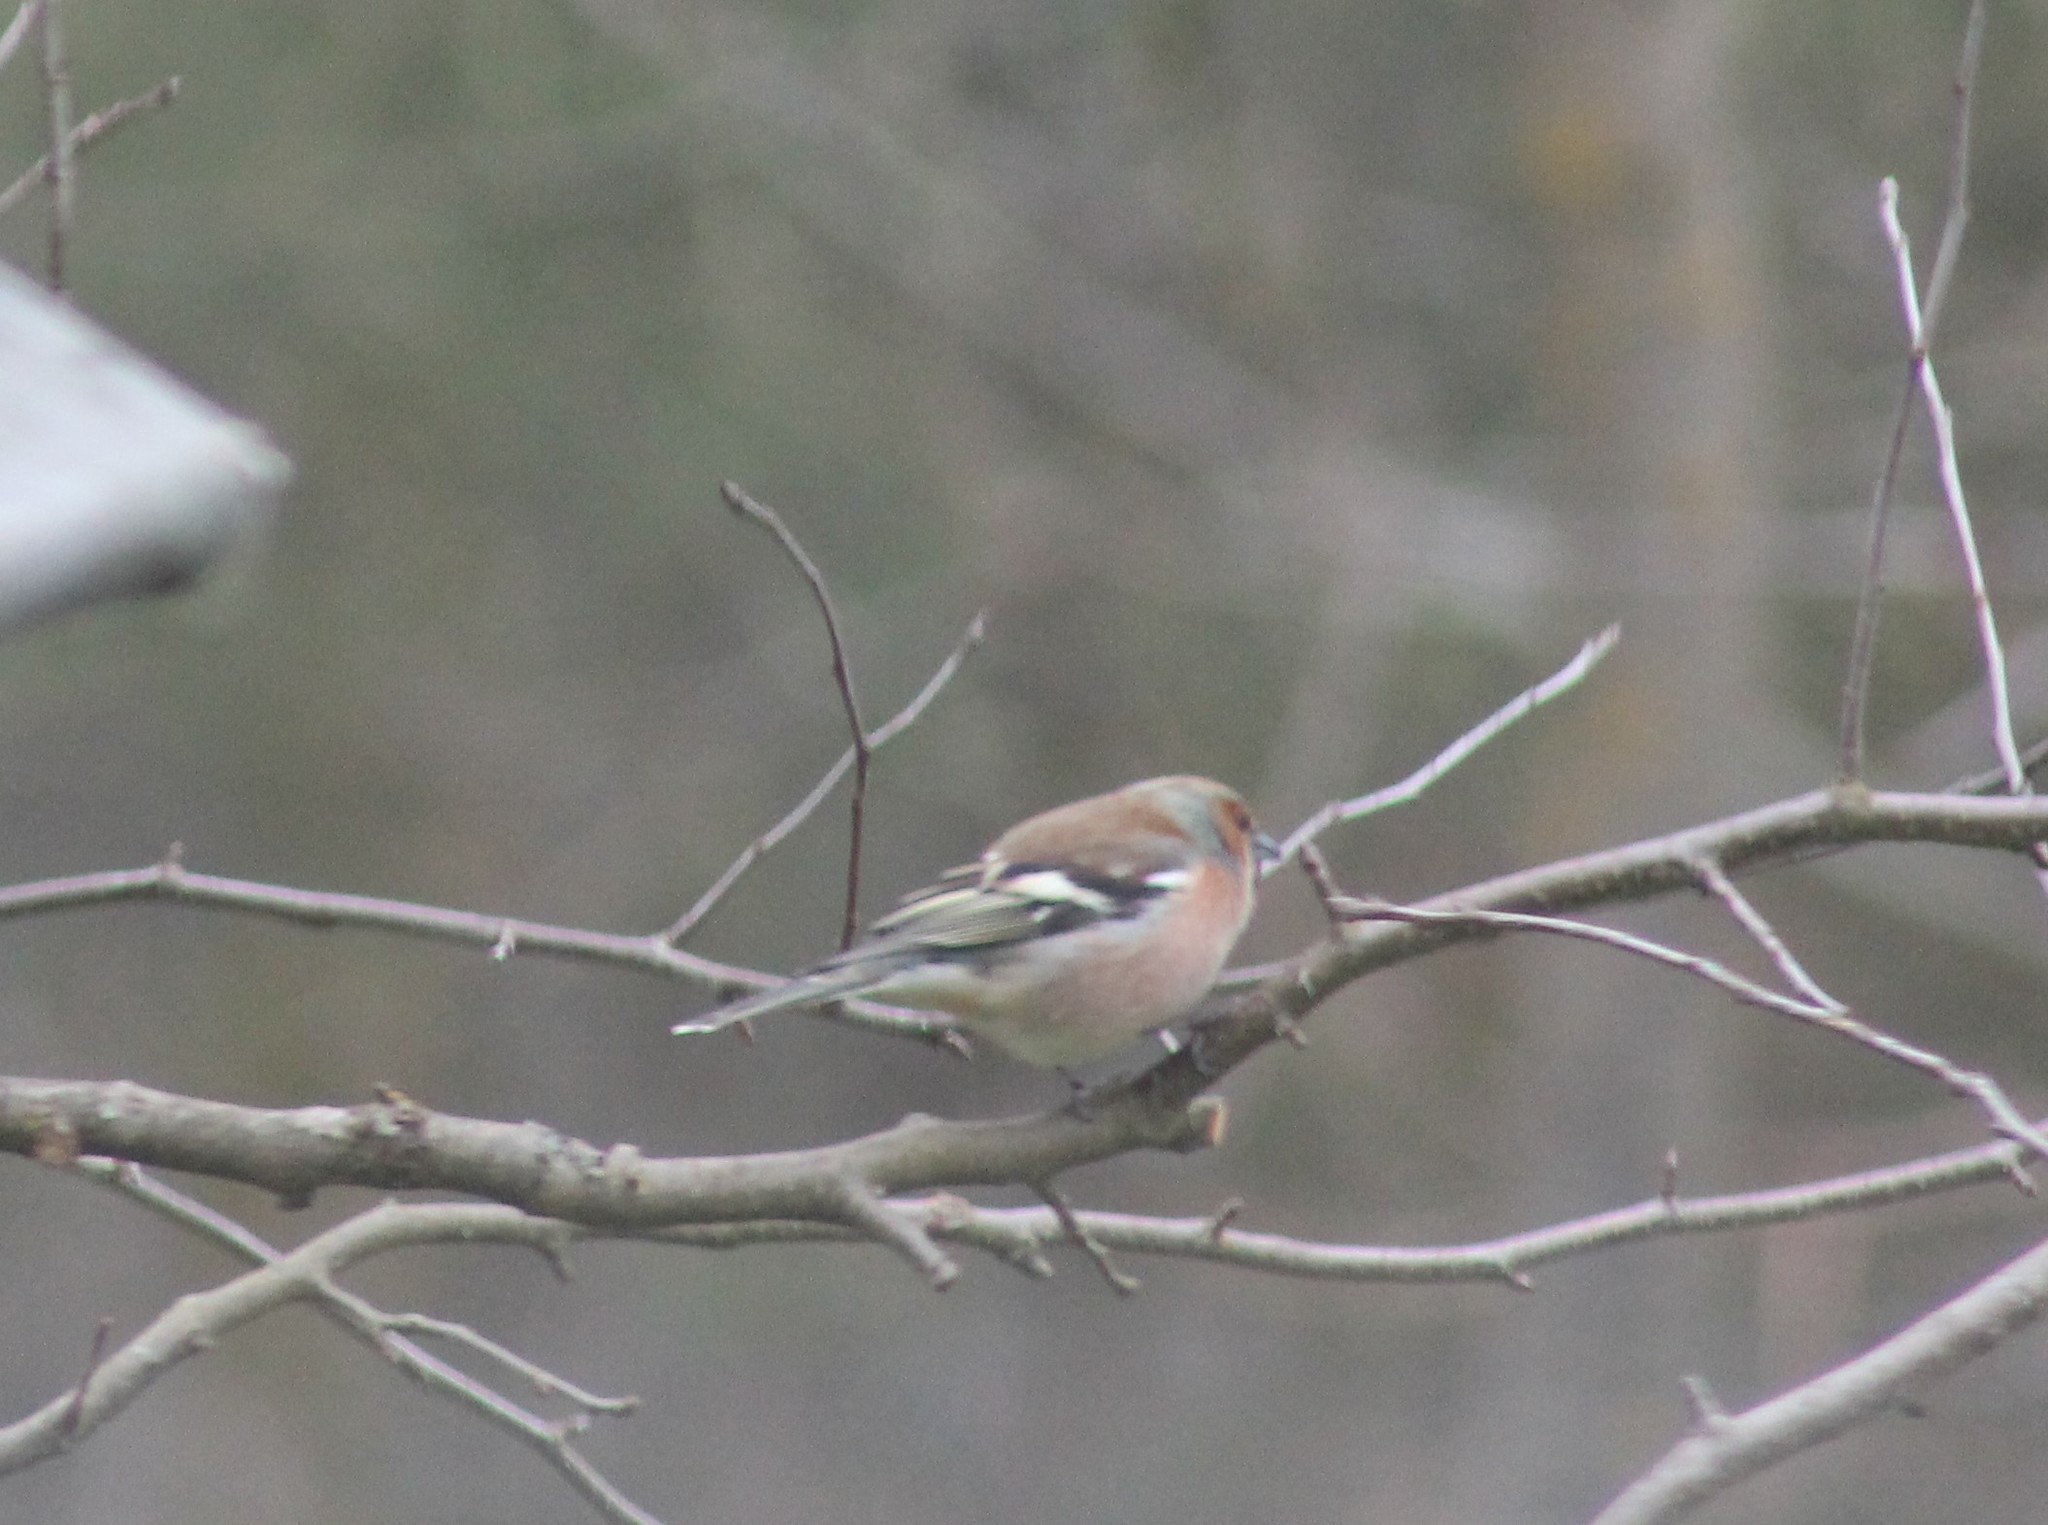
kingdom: Animalia
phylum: Chordata
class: Aves
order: Passeriformes
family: Fringillidae
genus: Fringilla
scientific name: Fringilla coelebs
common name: Common chaffinch
